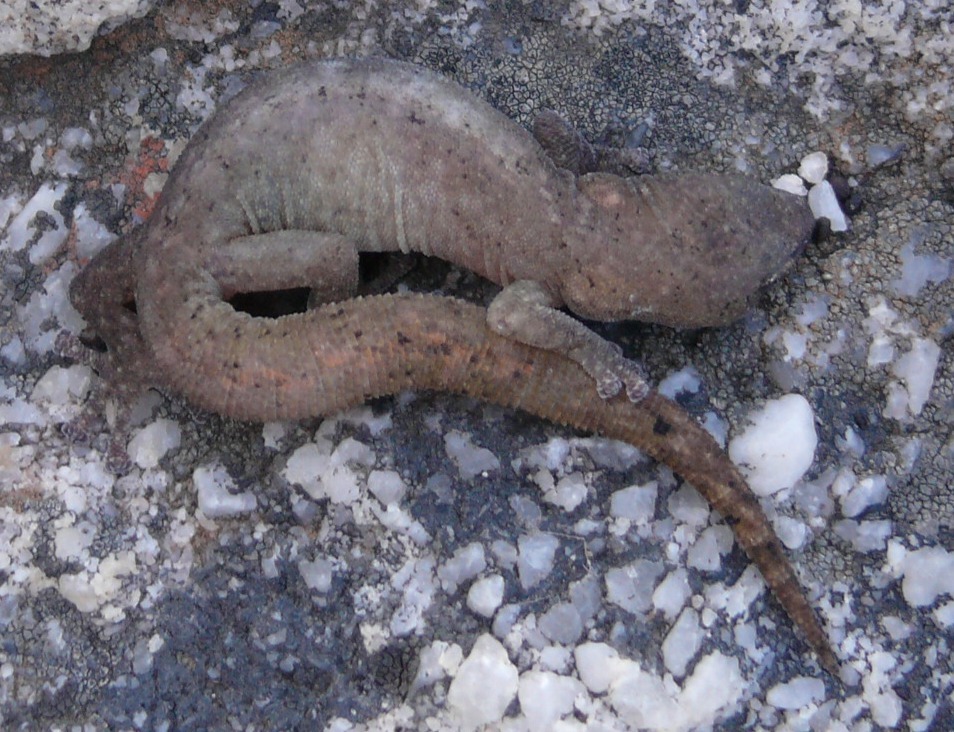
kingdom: Animalia
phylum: Chordata
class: Squamata
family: Gekkonidae
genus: Afrogecko
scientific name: Afrogecko porphyreus
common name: Marbled leaf-toed gecko
